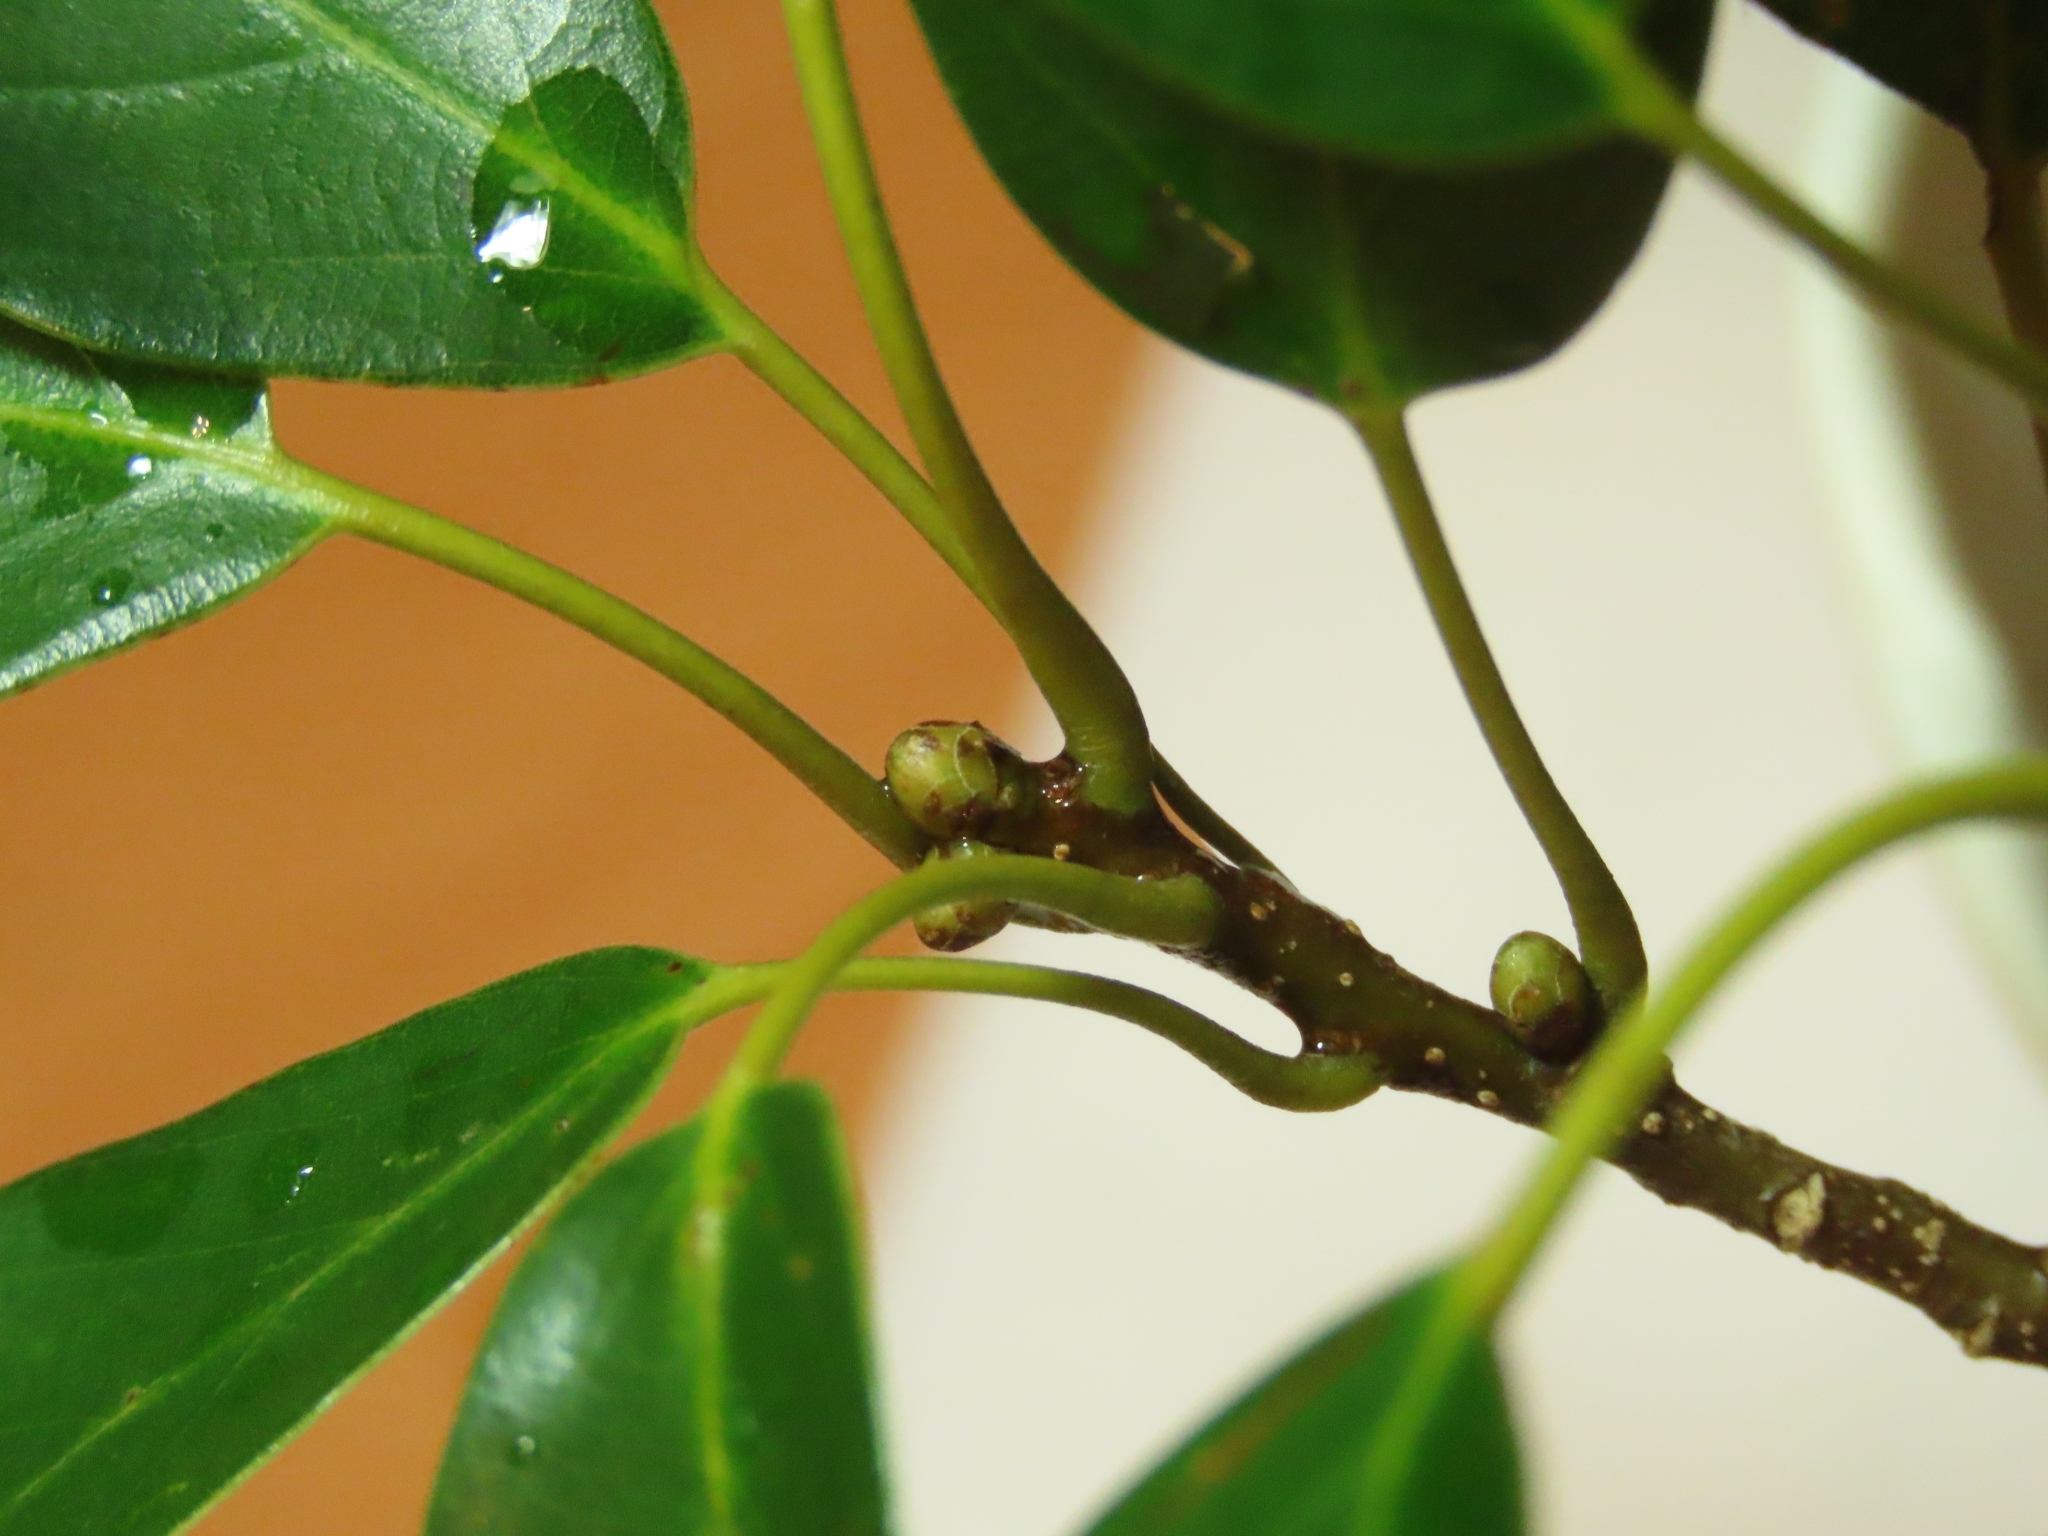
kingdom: Plantae
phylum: Tracheophyta
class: Magnoliopsida
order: Fagales
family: Fagaceae
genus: Quercus
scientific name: Quercus glauca
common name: Ring-cup oak
